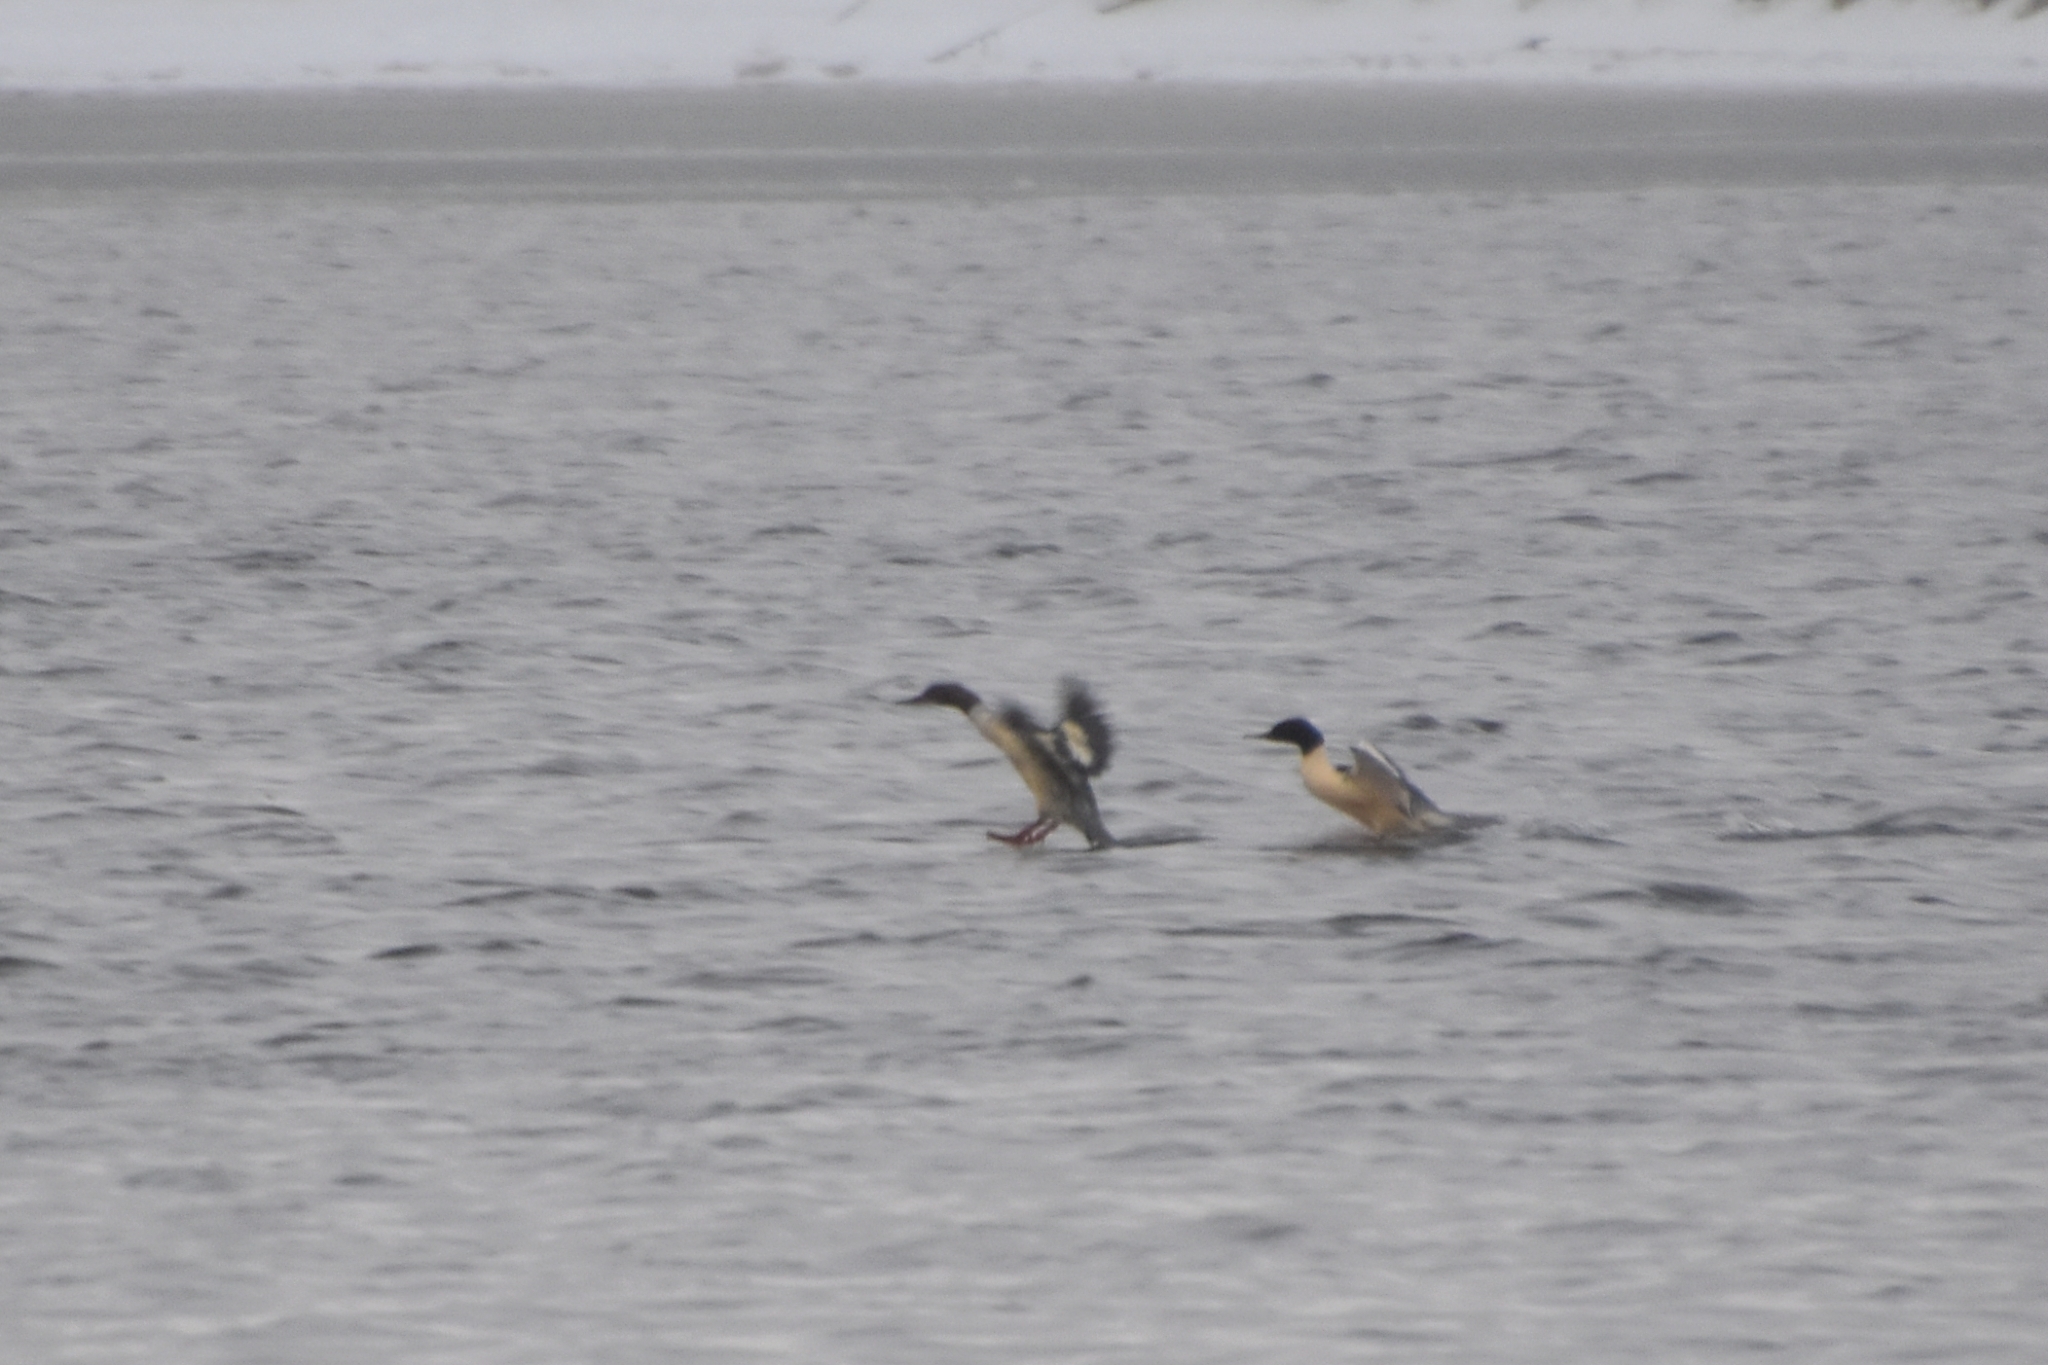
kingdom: Animalia
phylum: Chordata
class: Aves
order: Anseriformes
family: Anatidae
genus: Mergus
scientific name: Mergus merganser
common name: Common merganser
